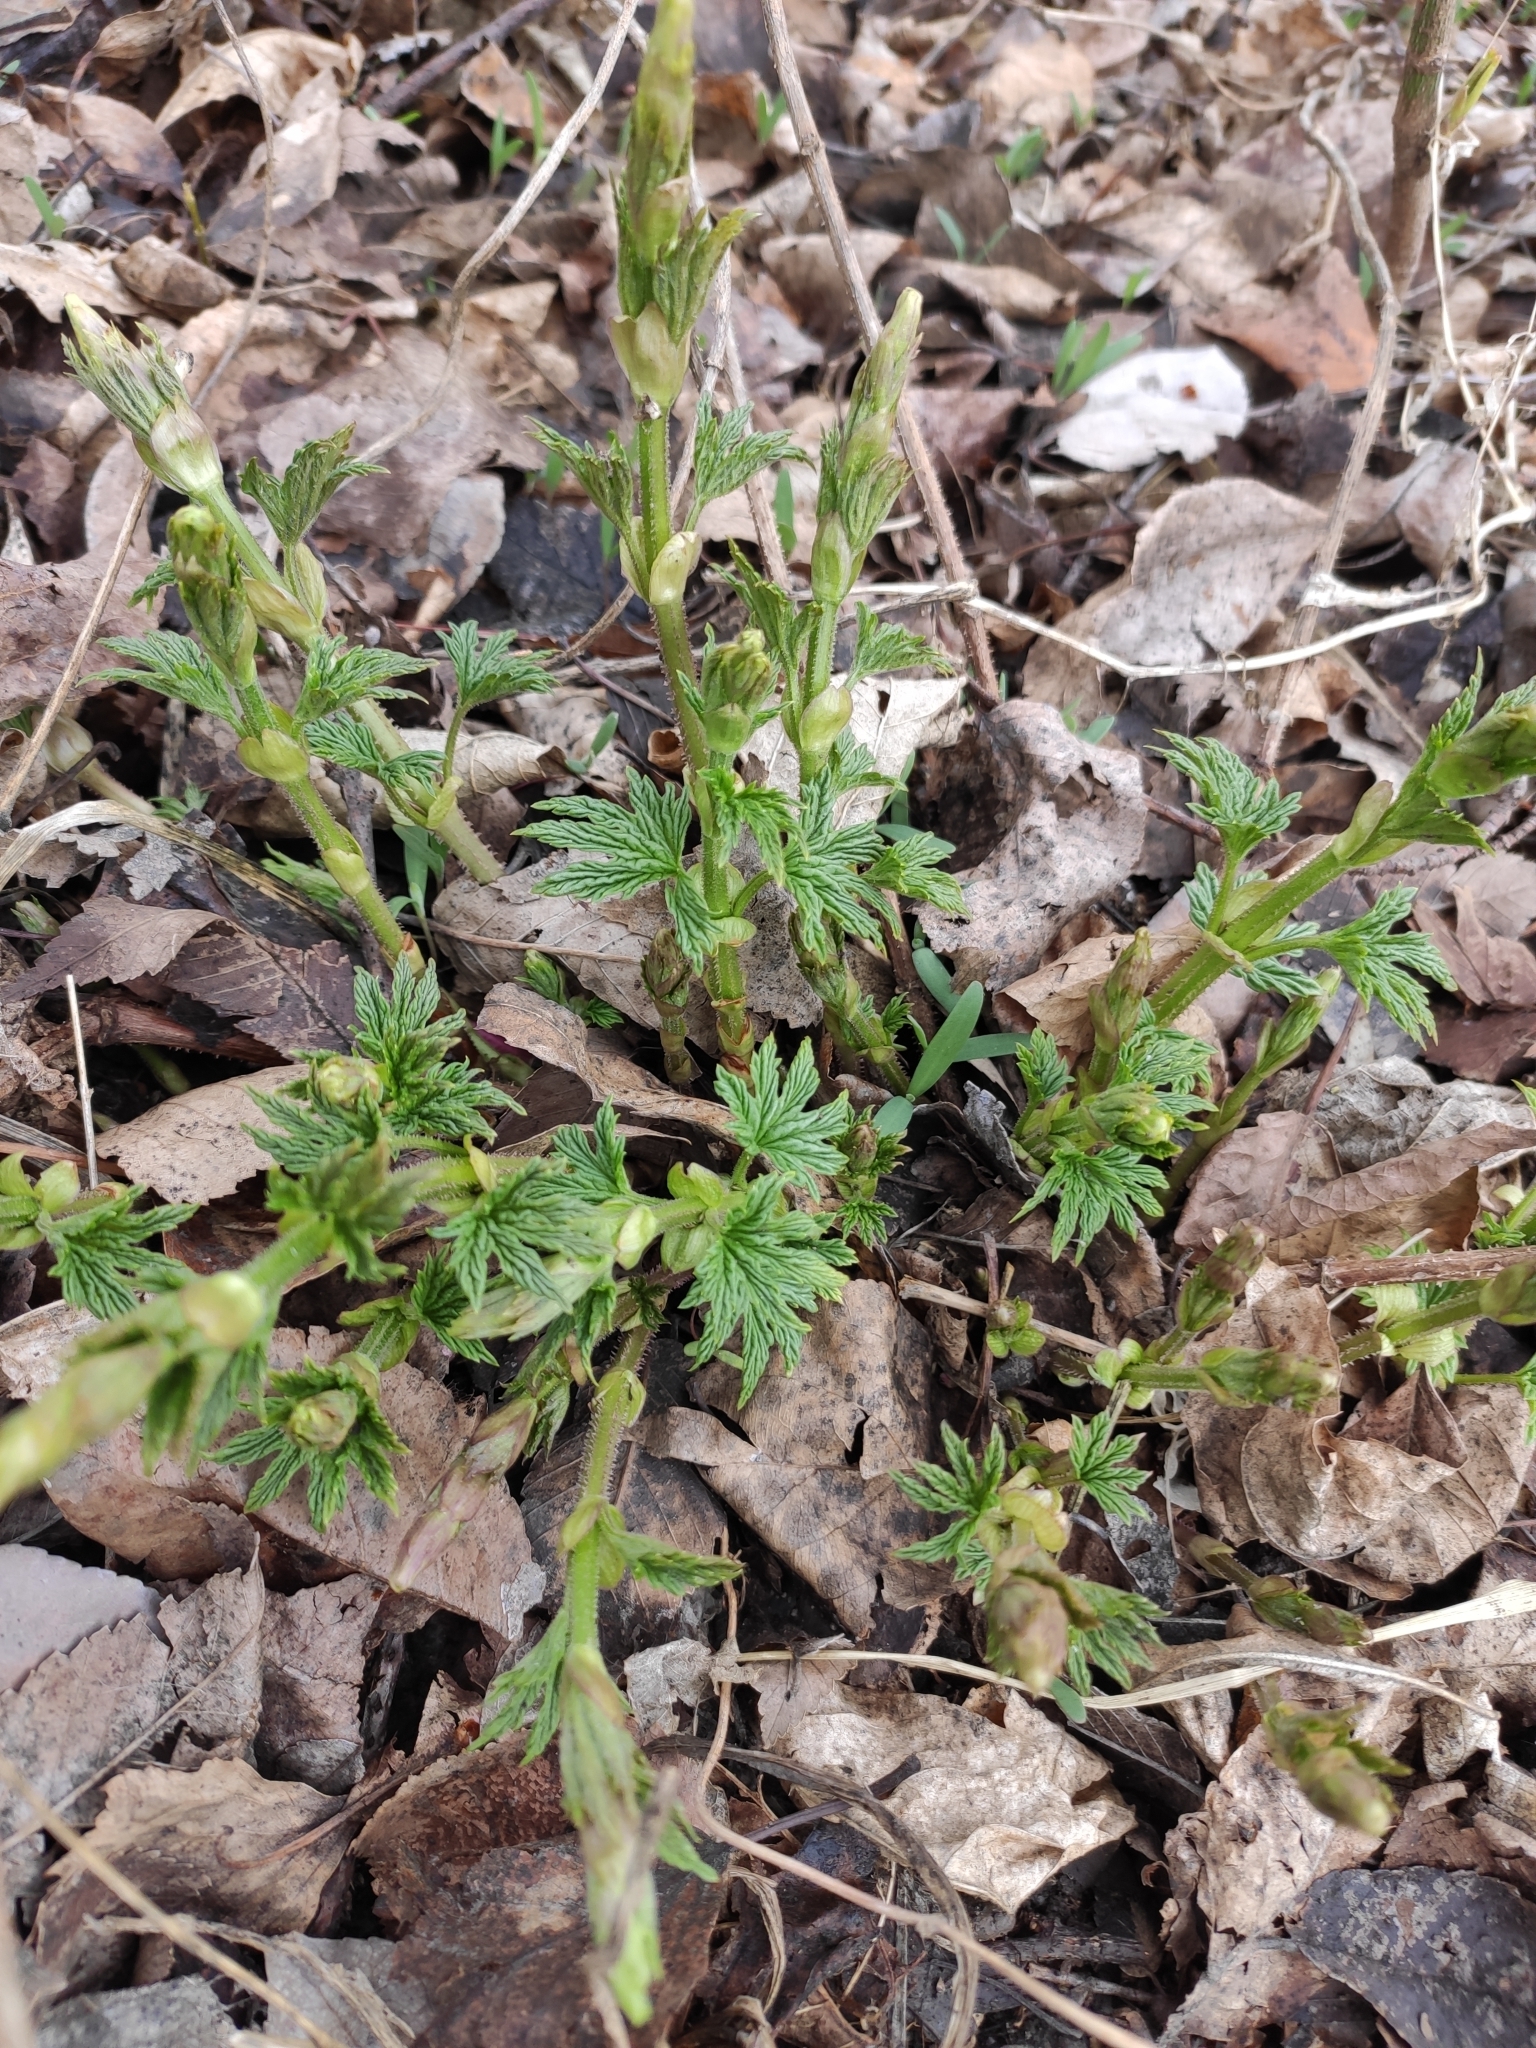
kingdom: Plantae
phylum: Tracheophyta
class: Magnoliopsida
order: Rosales
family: Cannabaceae
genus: Humulus
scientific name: Humulus lupulus
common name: Hop
